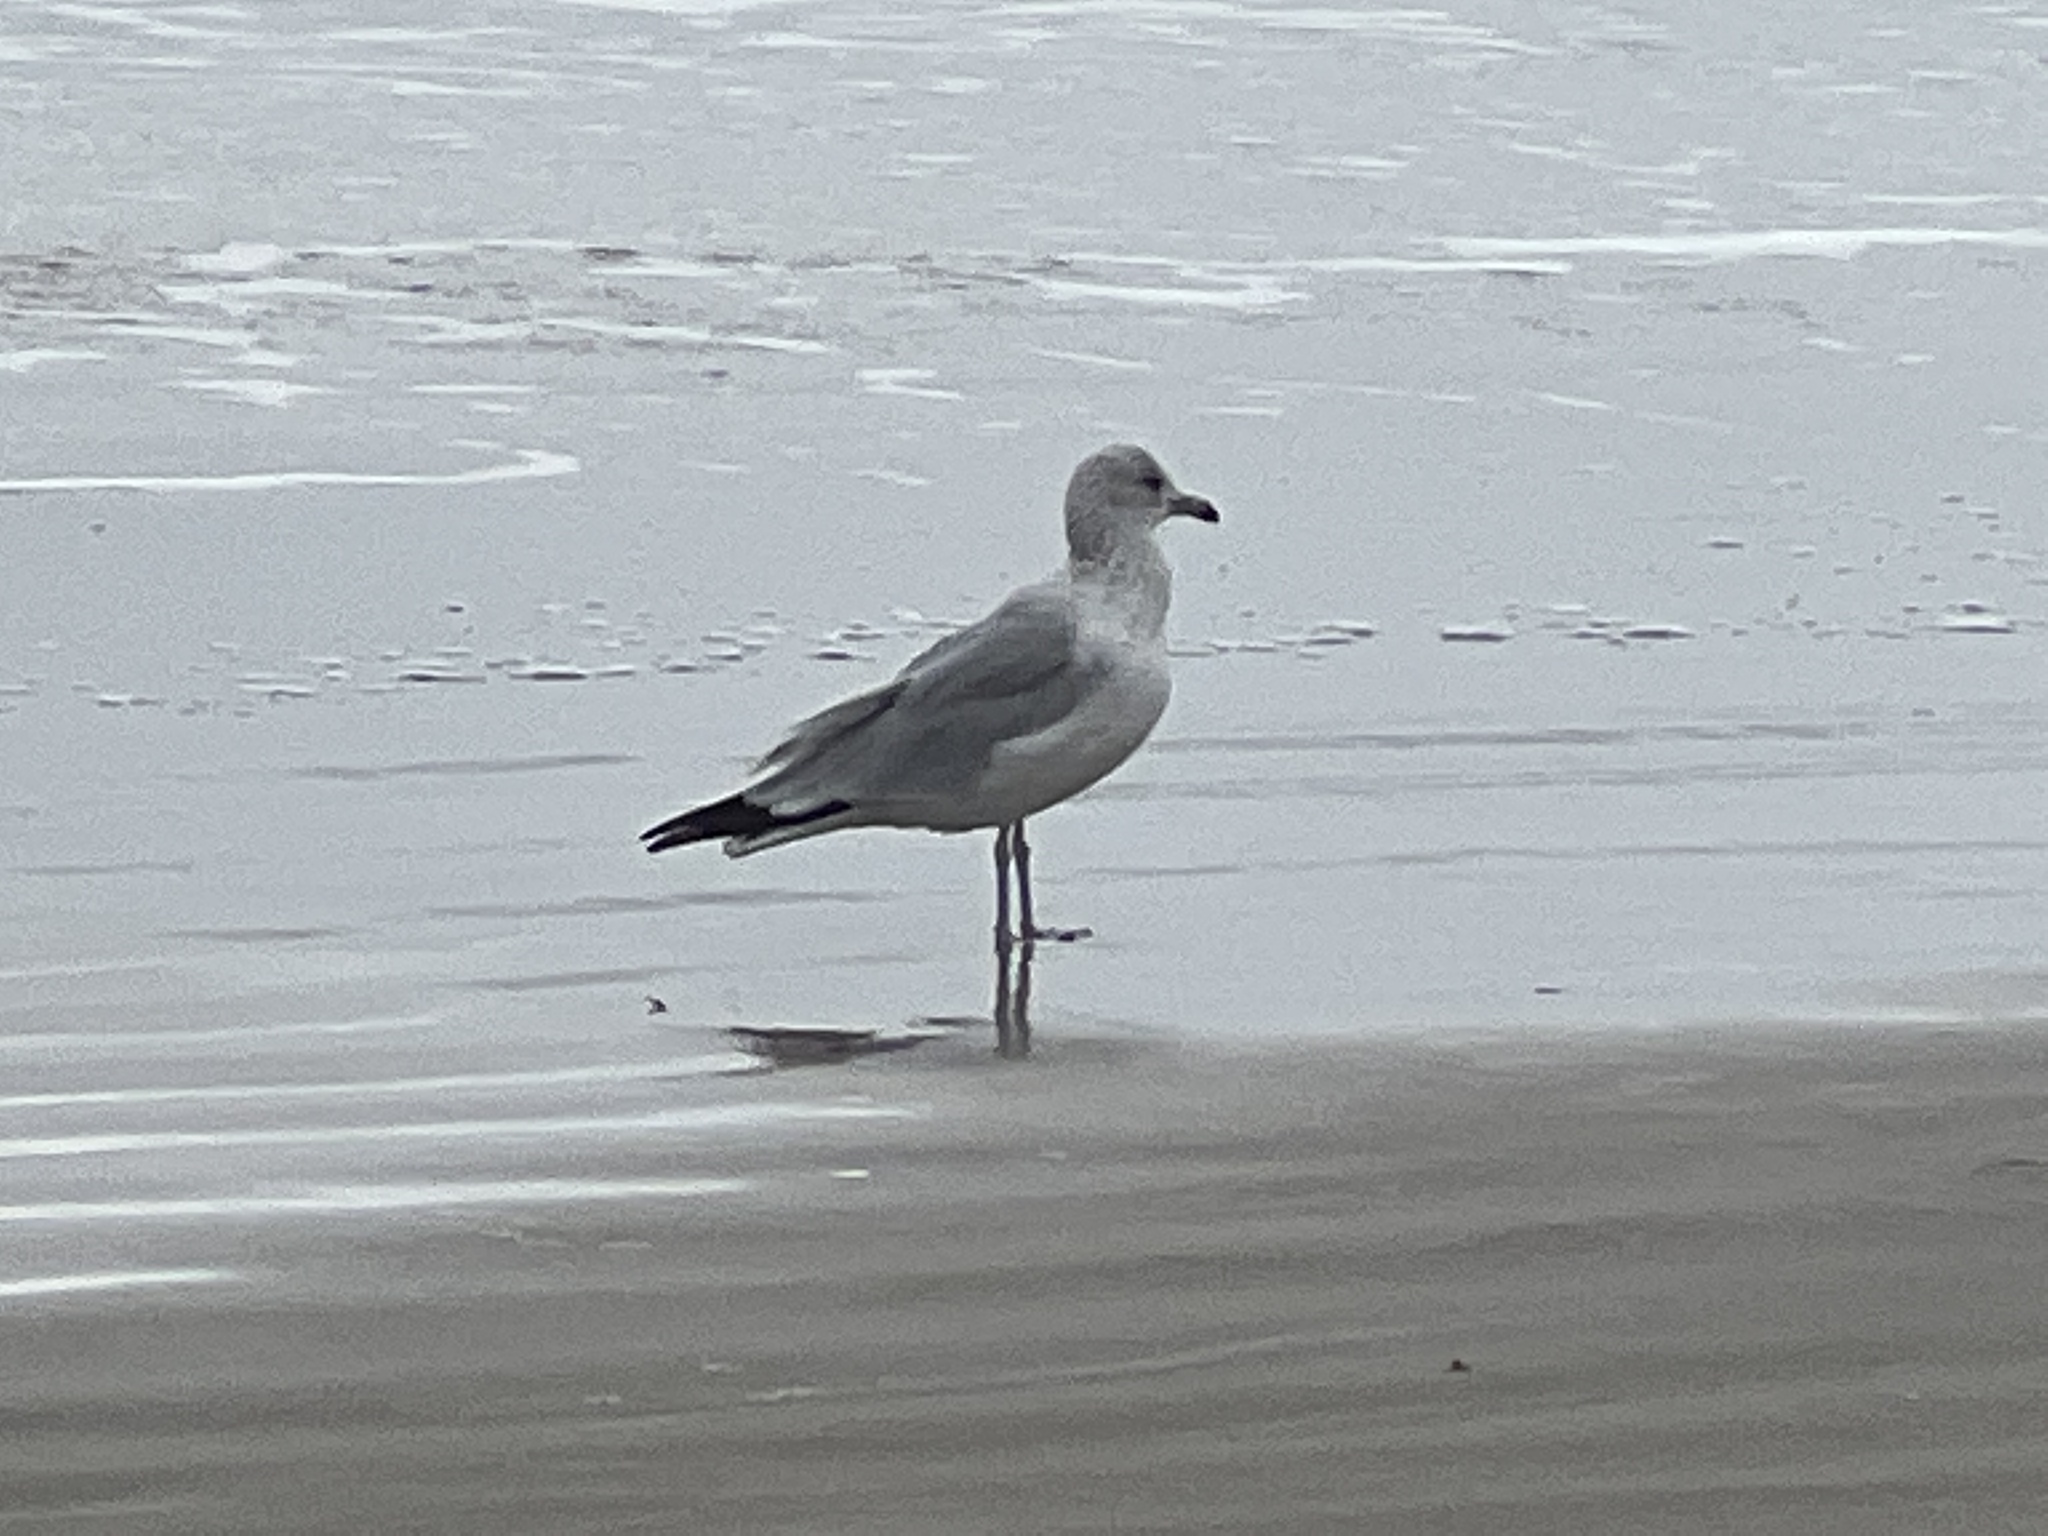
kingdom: Animalia
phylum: Chordata
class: Aves
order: Charadriiformes
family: Laridae
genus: Larus
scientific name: Larus delawarensis
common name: Ring-billed gull
